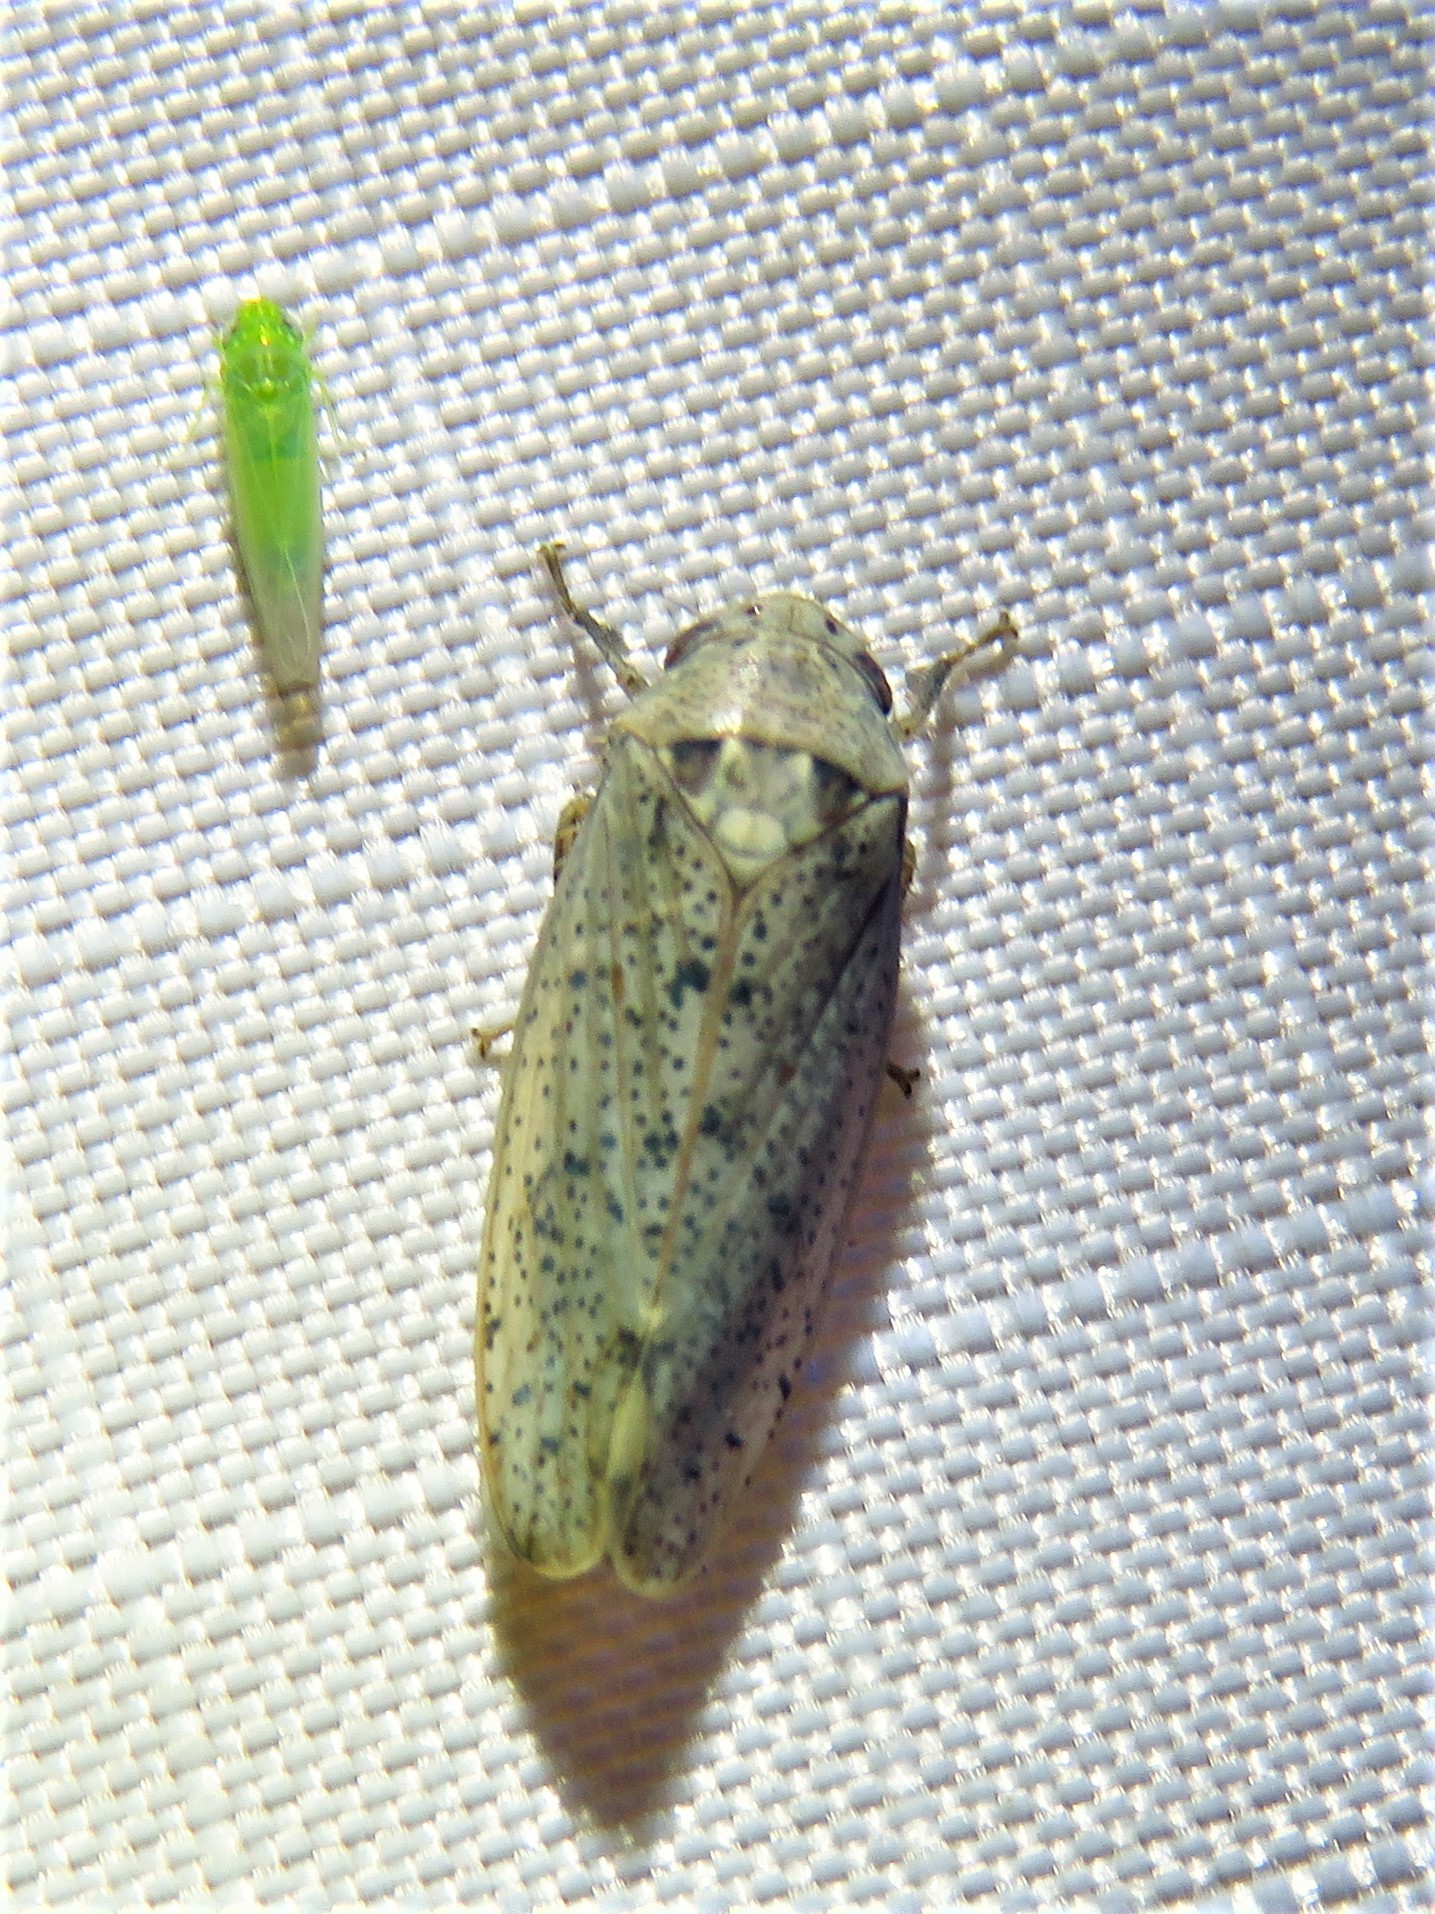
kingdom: Animalia
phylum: Arthropoda
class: Insecta
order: Hemiptera
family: Cicadellidae
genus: Ponana
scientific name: Ponana puncticollis
